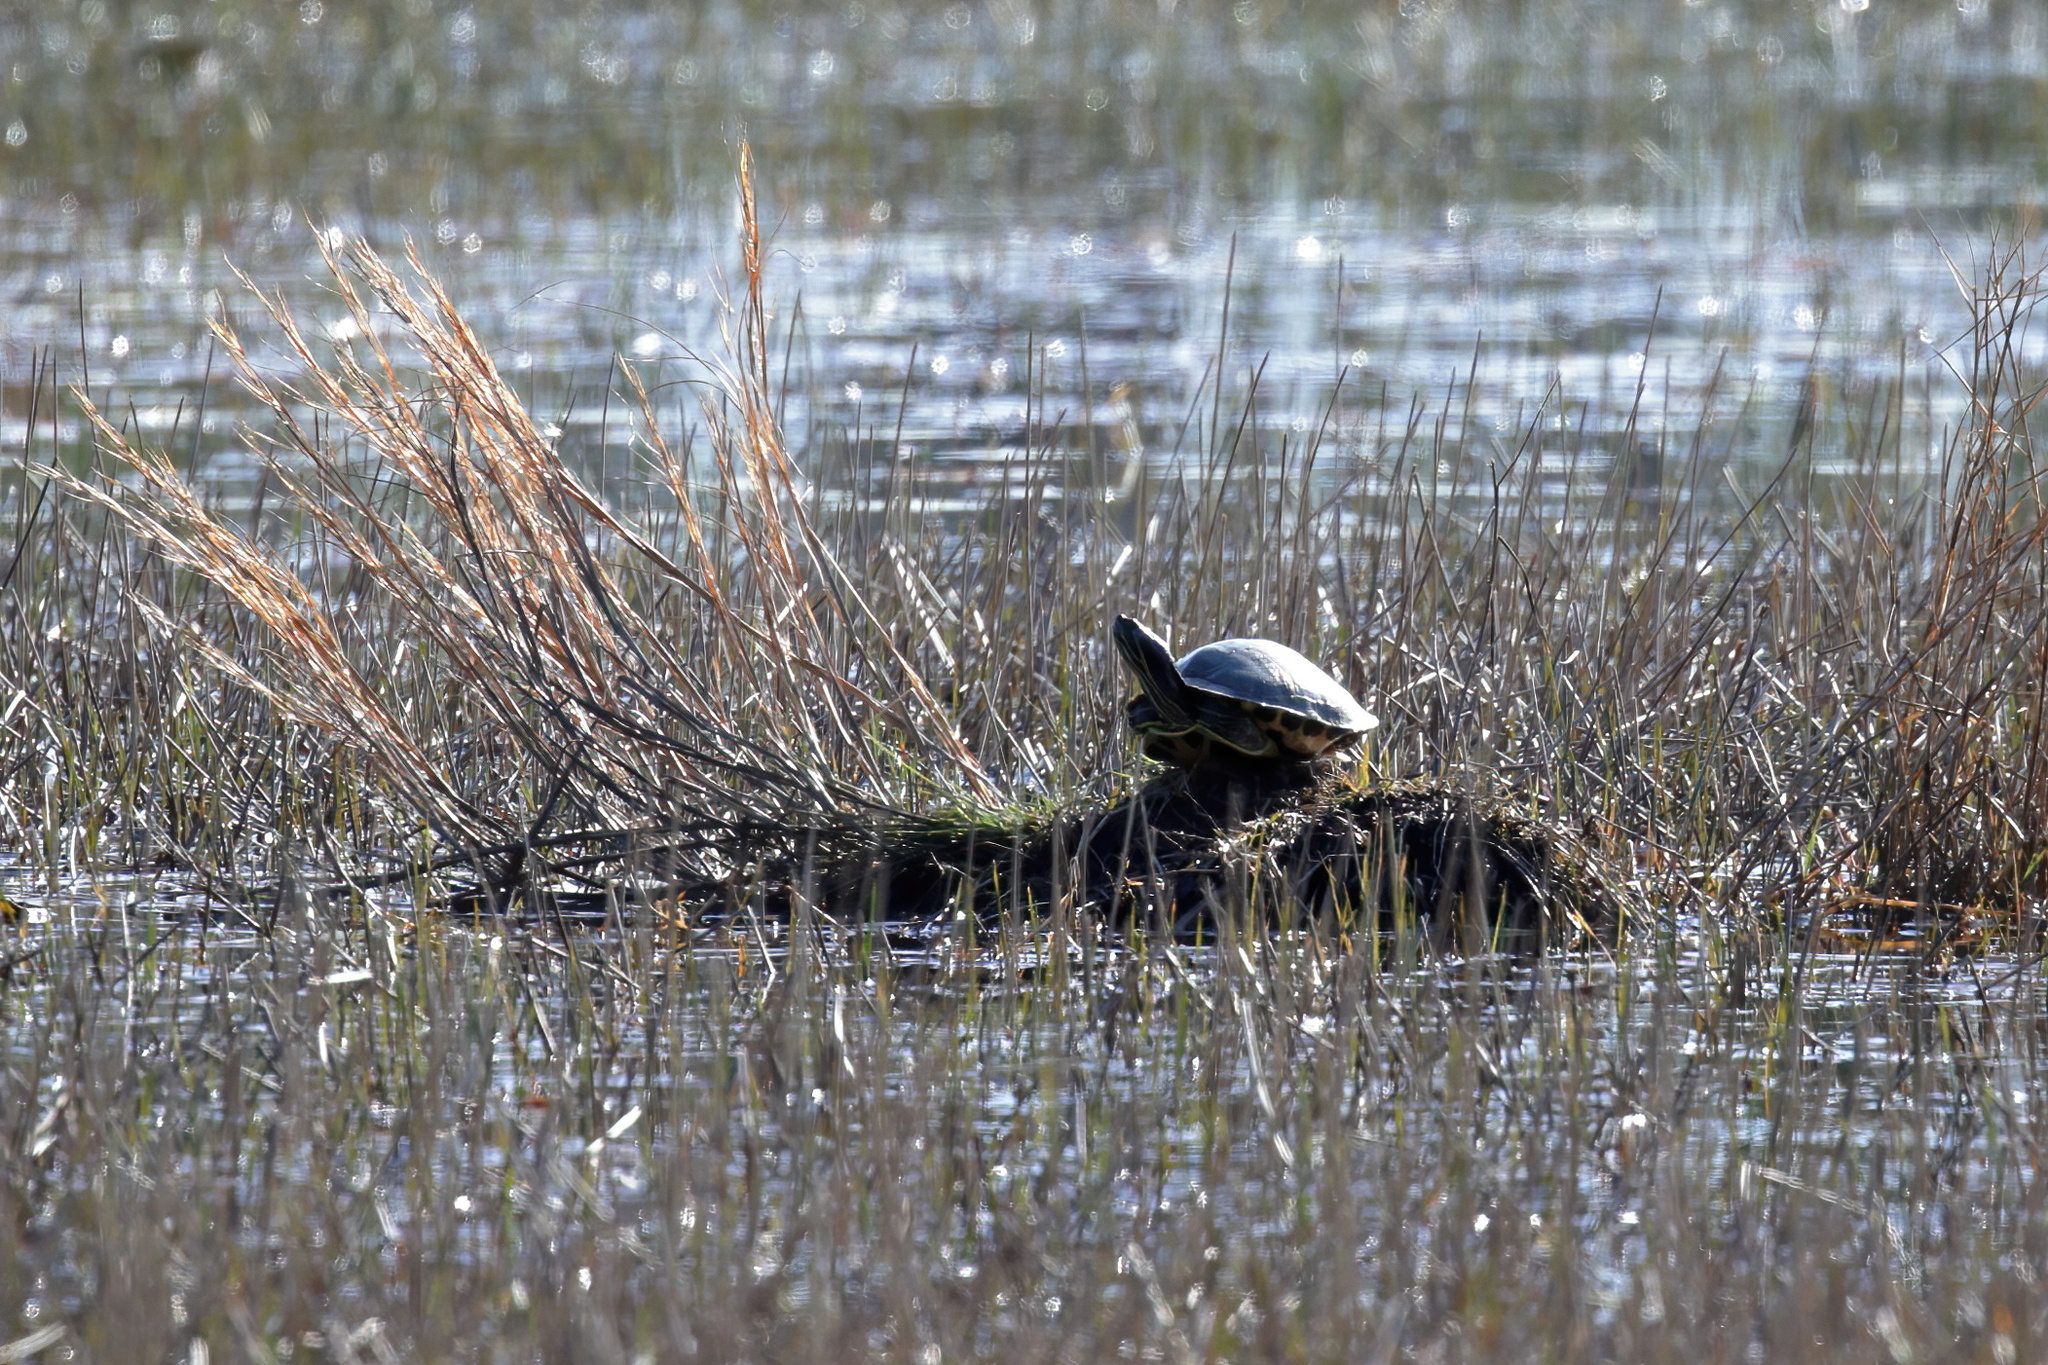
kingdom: Animalia
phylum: Chordata
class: Testudines
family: Emydidae
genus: Trachemys
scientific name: Trachemys scripta
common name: Slider
